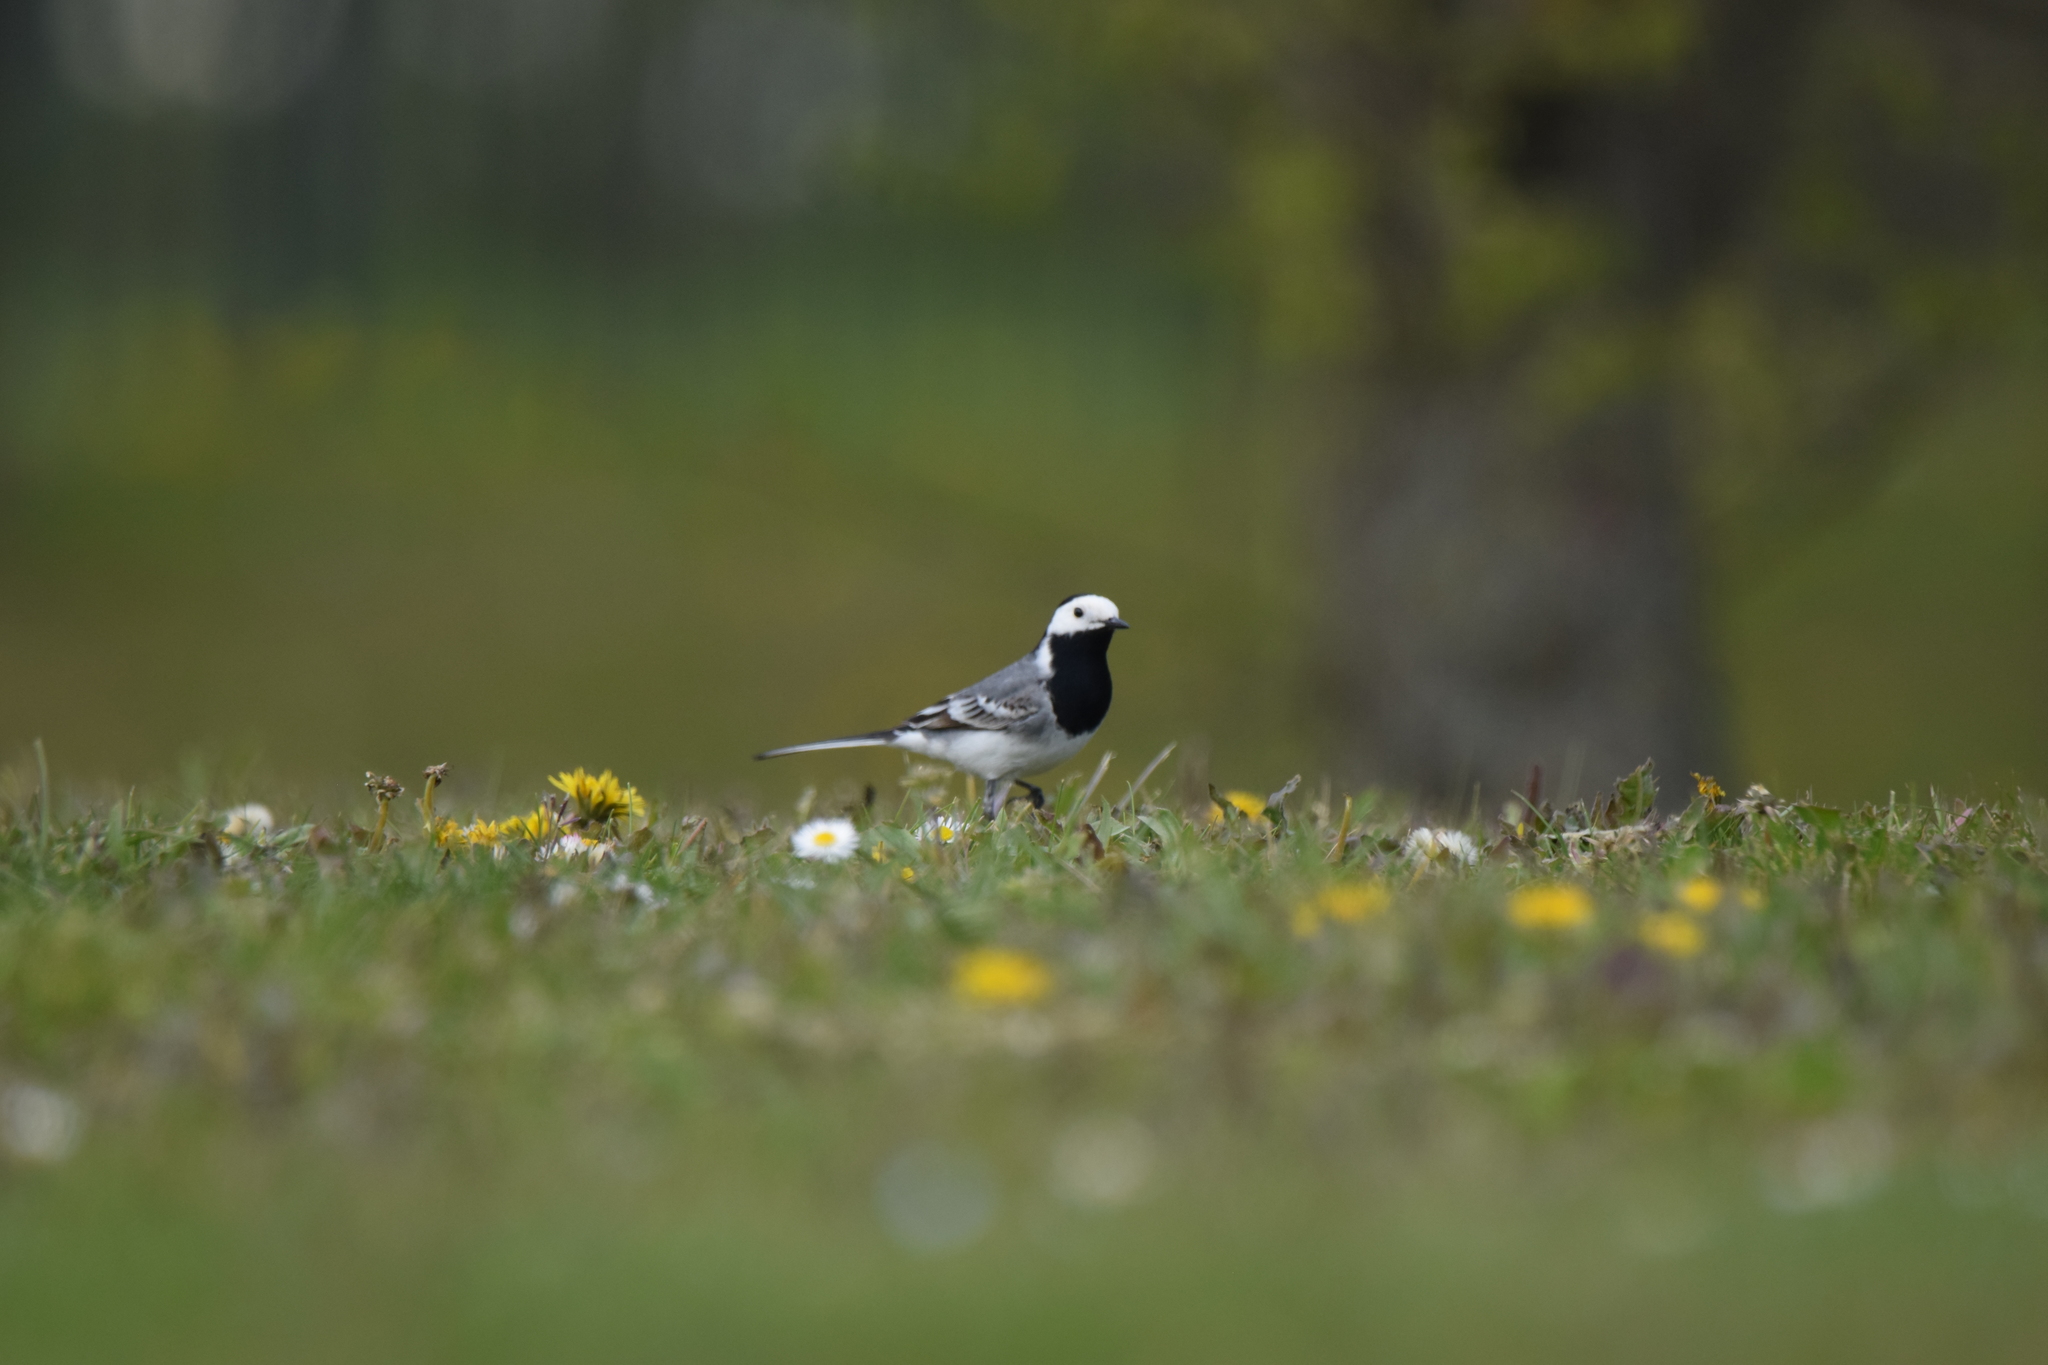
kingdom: Animalia
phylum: Chordata
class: Aves
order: Passeriformes
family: Motacillidae
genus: Motacilla
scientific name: Motacilla alba
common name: White wagtail
